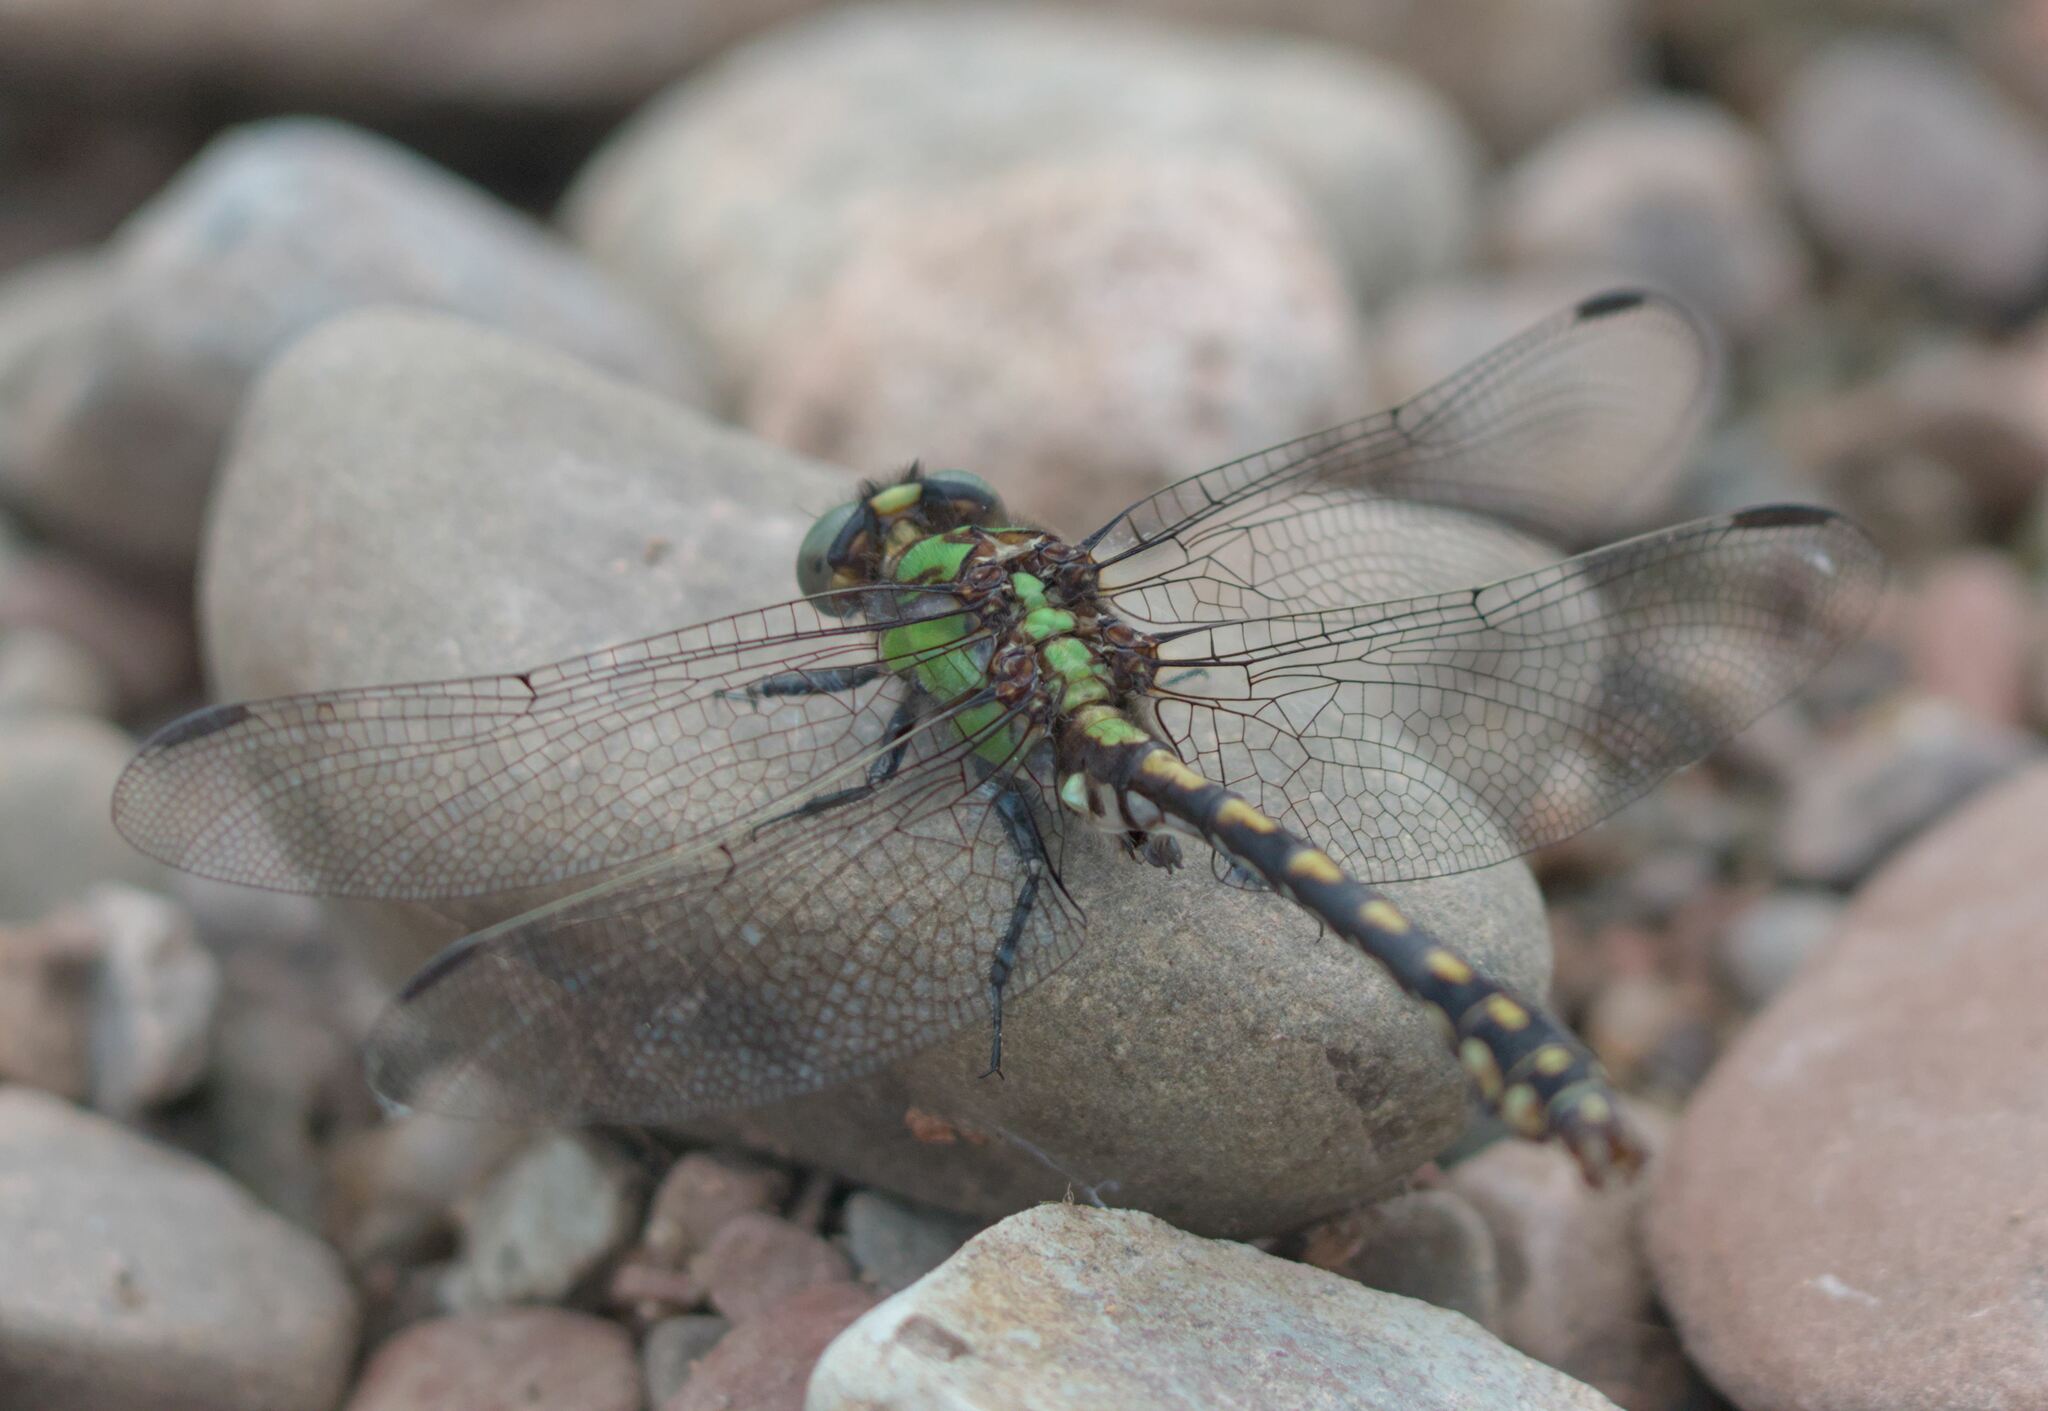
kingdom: Animalia
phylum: Arthropoda
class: Insecta
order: Odonata
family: Gomphidae
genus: Ophiogomphus
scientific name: Ophiogomphus carolus
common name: Riffle snaketail
